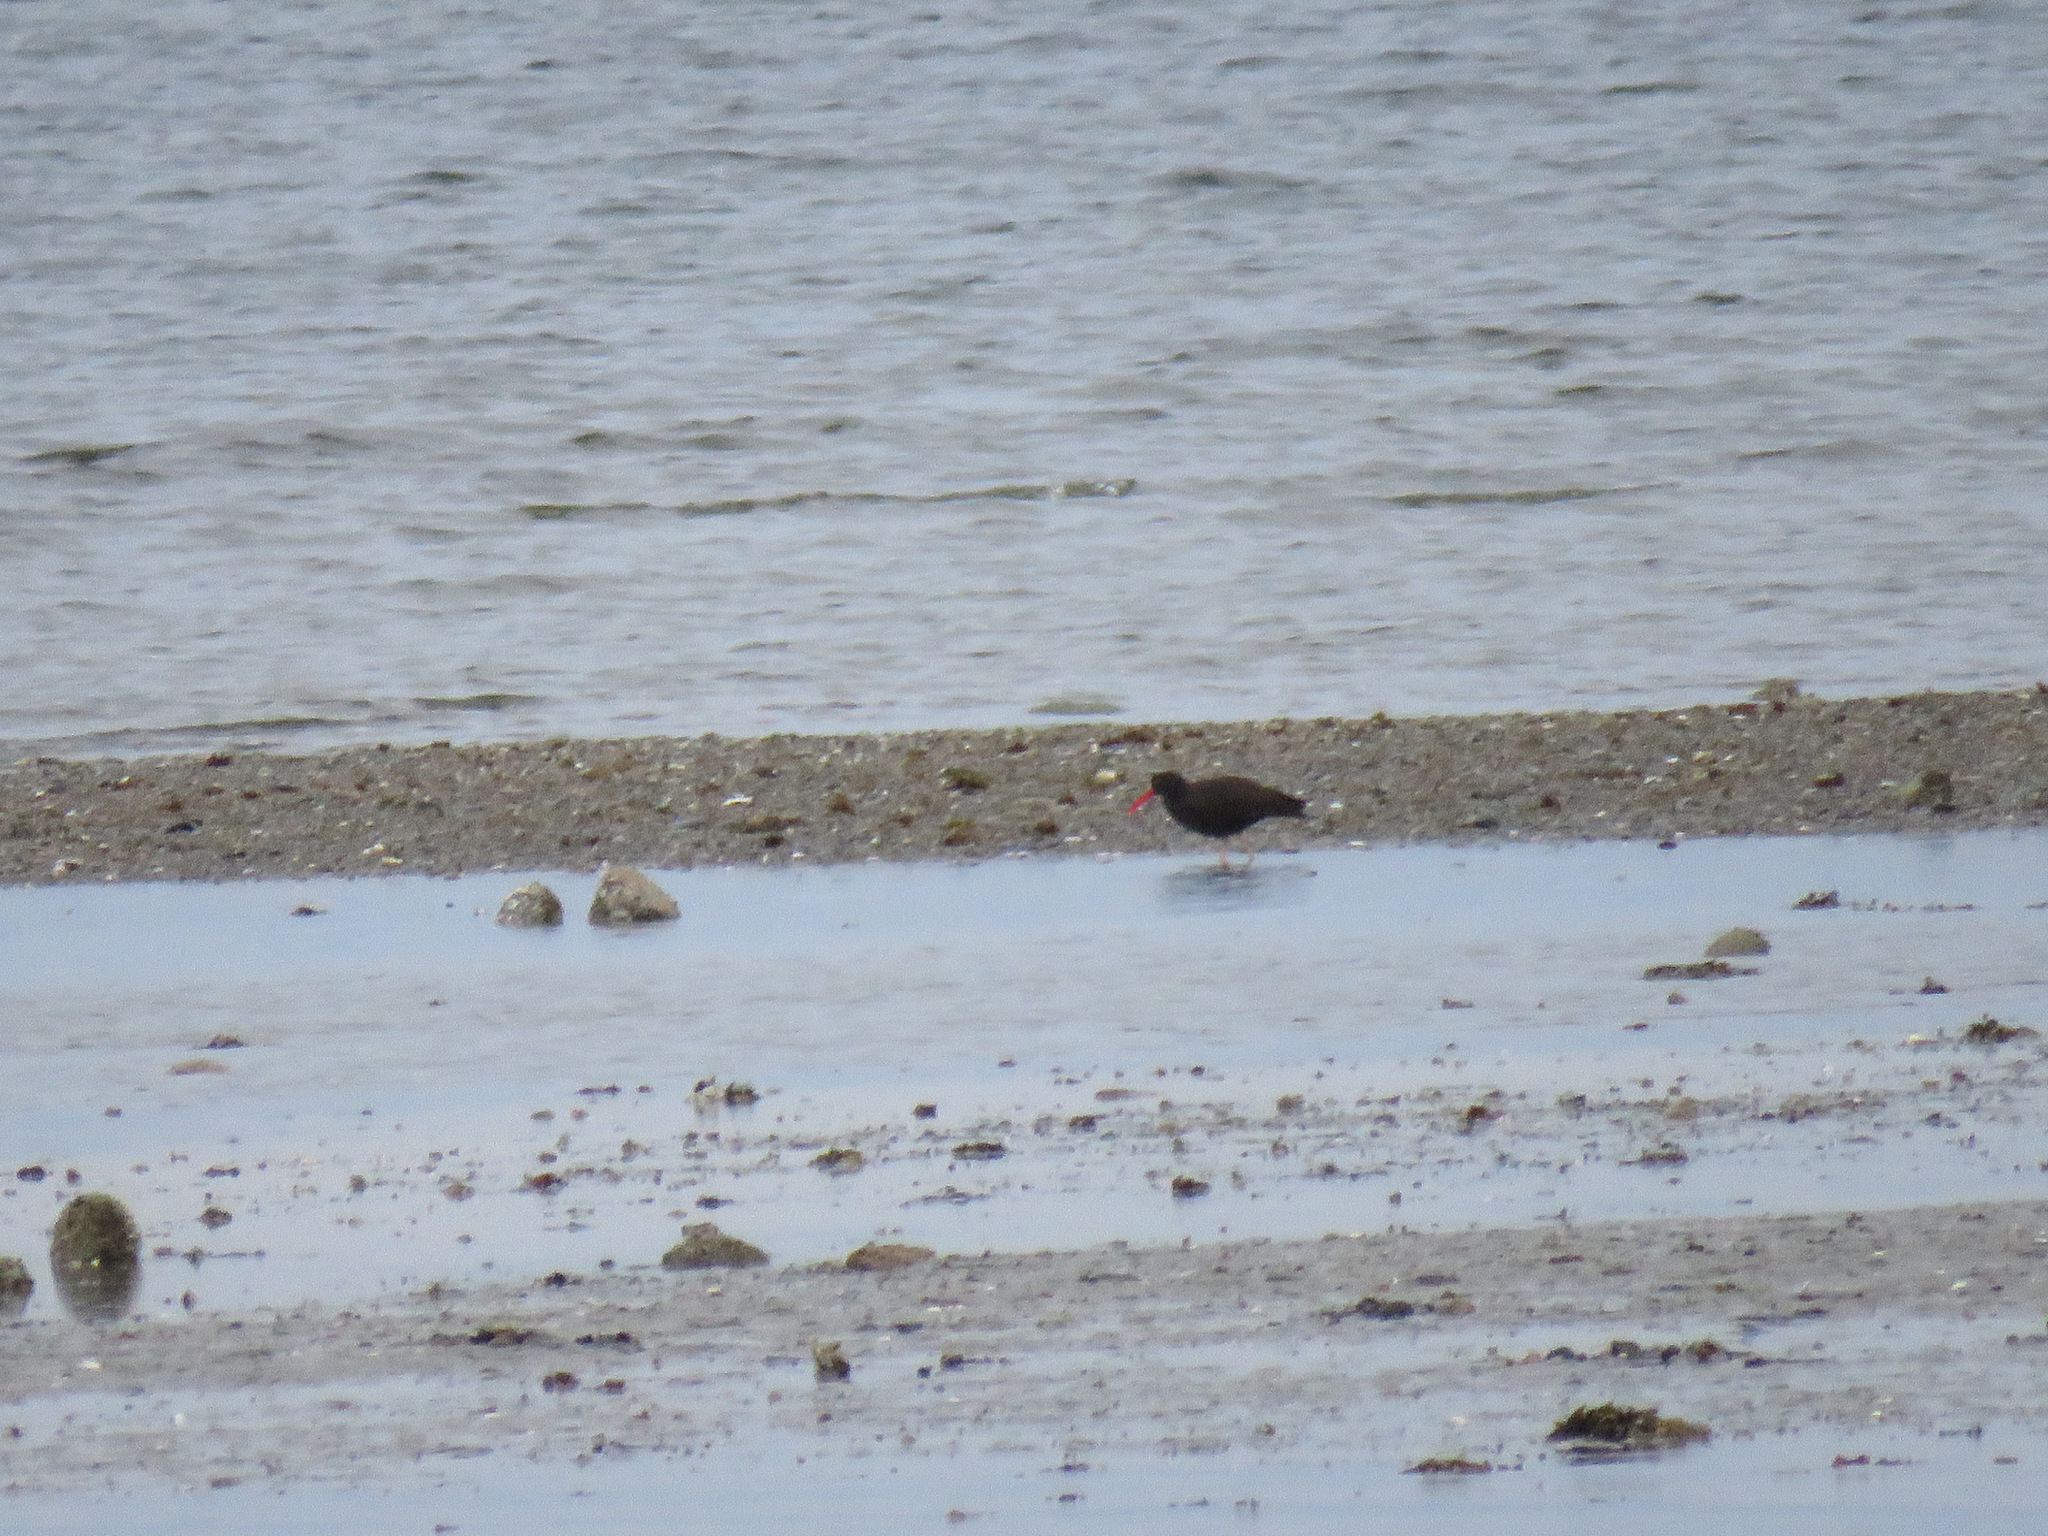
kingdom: Animalia
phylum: Chordata
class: Aves
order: Charadriiformes
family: Haematopodidae
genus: Haematopus
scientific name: Haematopus bachmani
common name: Black oystercatcher
